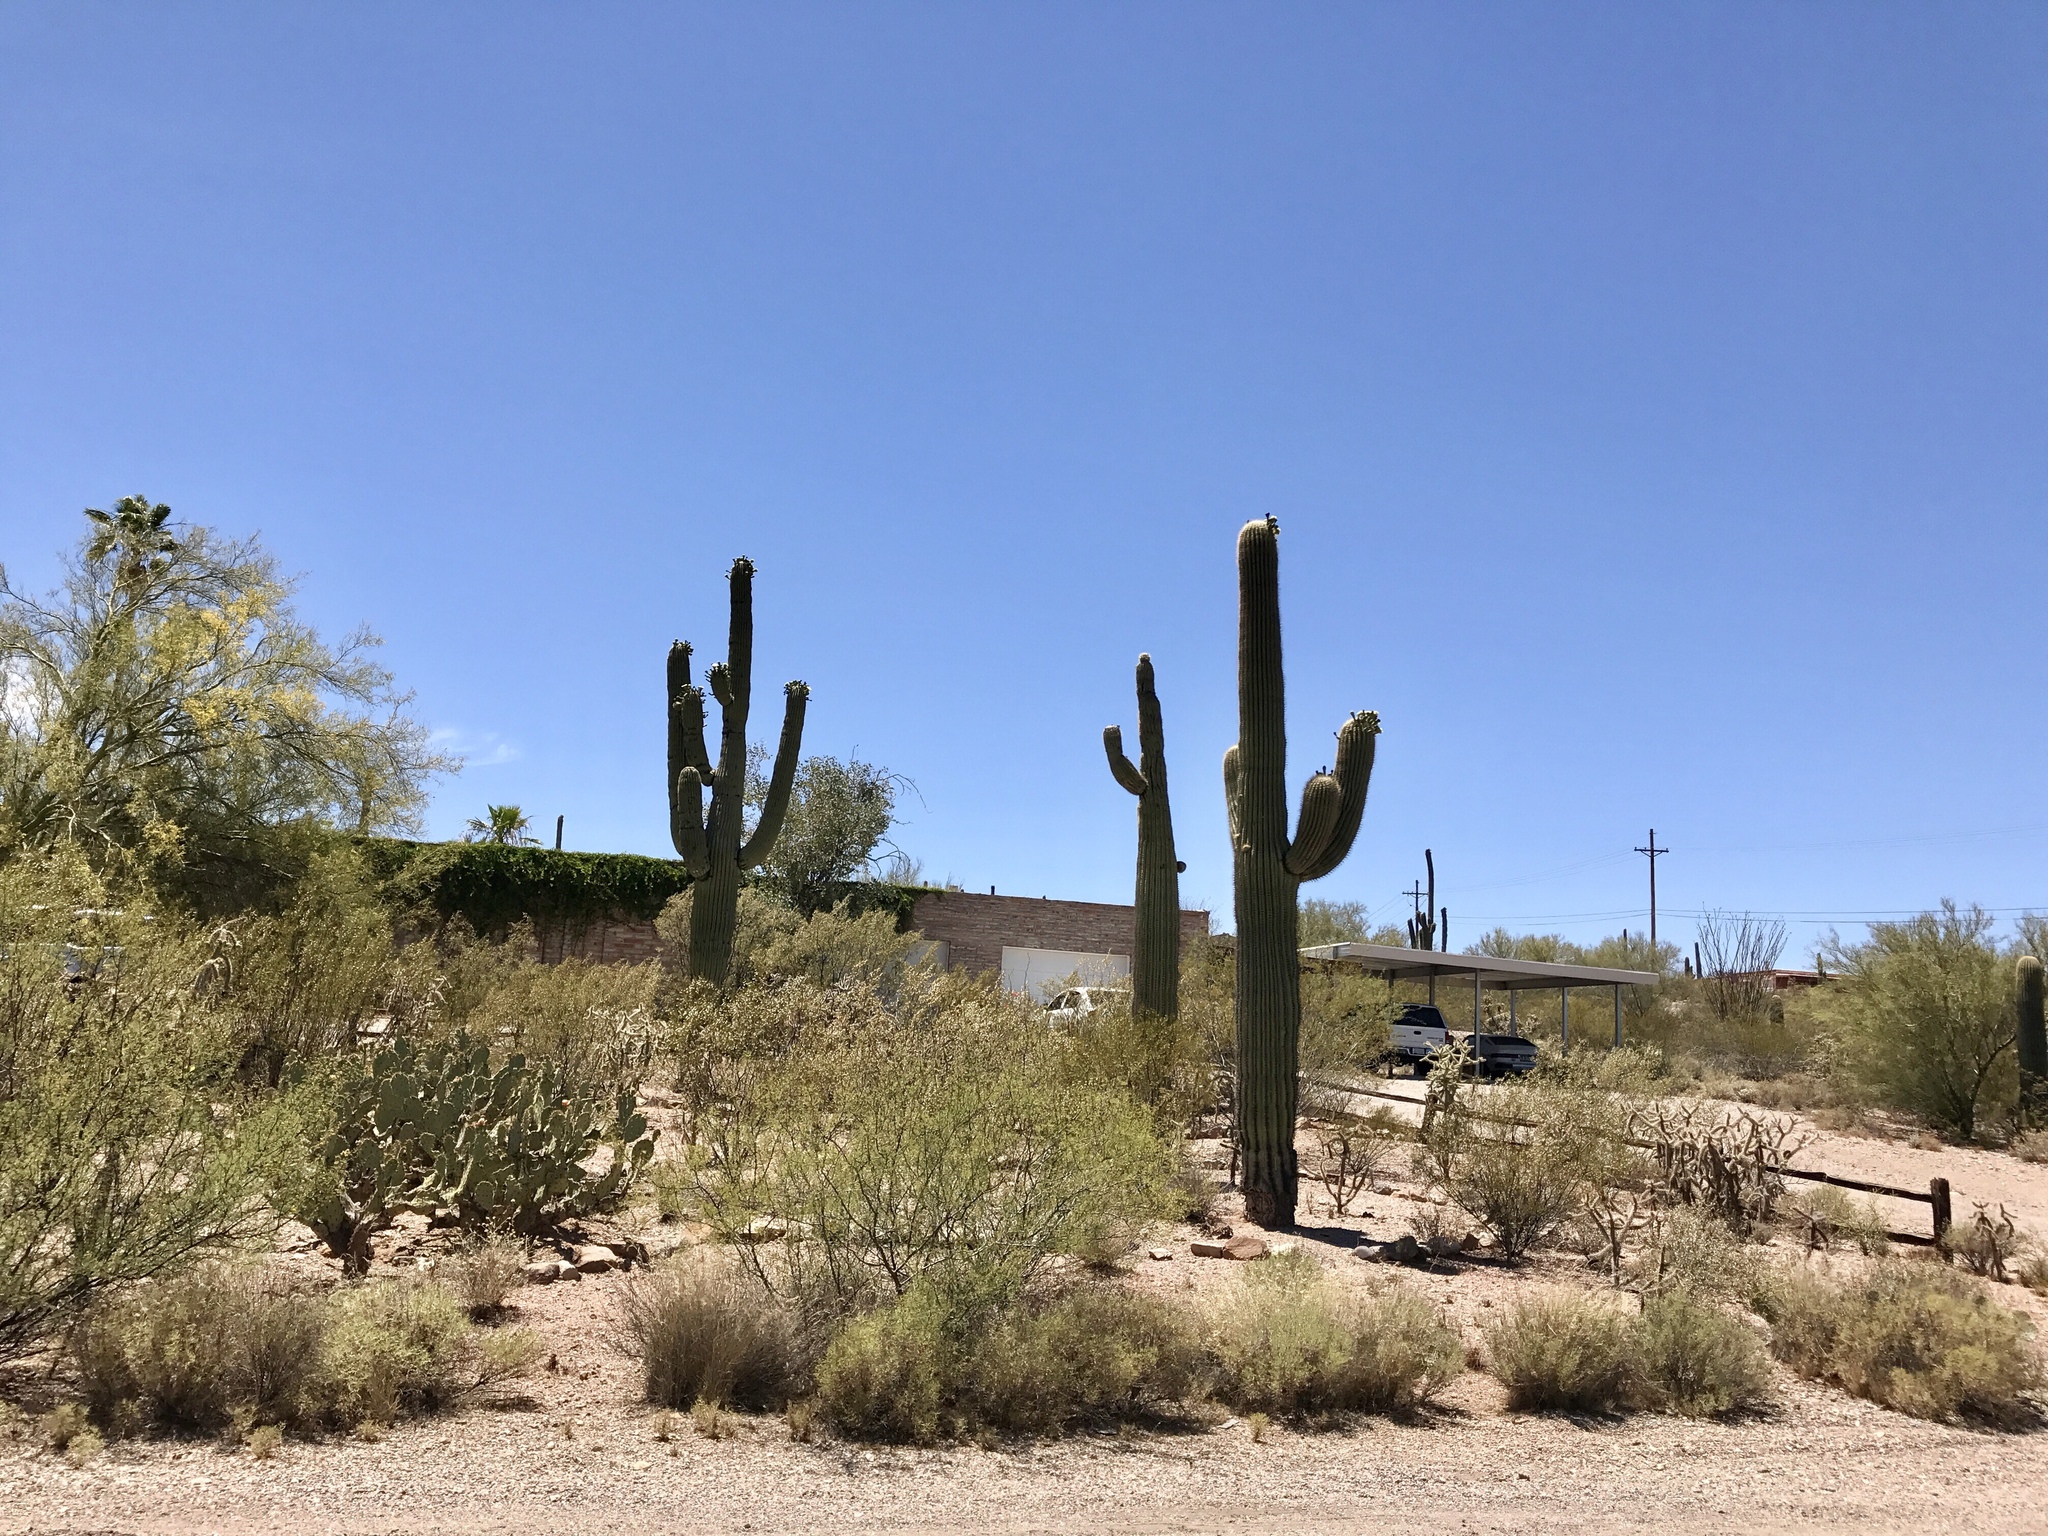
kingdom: Plantae
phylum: Tracheophyta
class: Magnoliopsida
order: Caryophyllales
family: Cactaceae
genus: Carnegiea
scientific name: Carnegiea gigantea
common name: Saguaro
